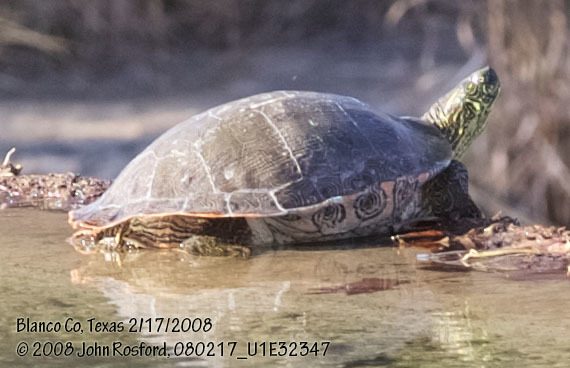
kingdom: Animalia
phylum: Chordata
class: Testudines
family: Emydidae
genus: Pseudemys
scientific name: Pseudemys texana
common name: Texas river cooter
